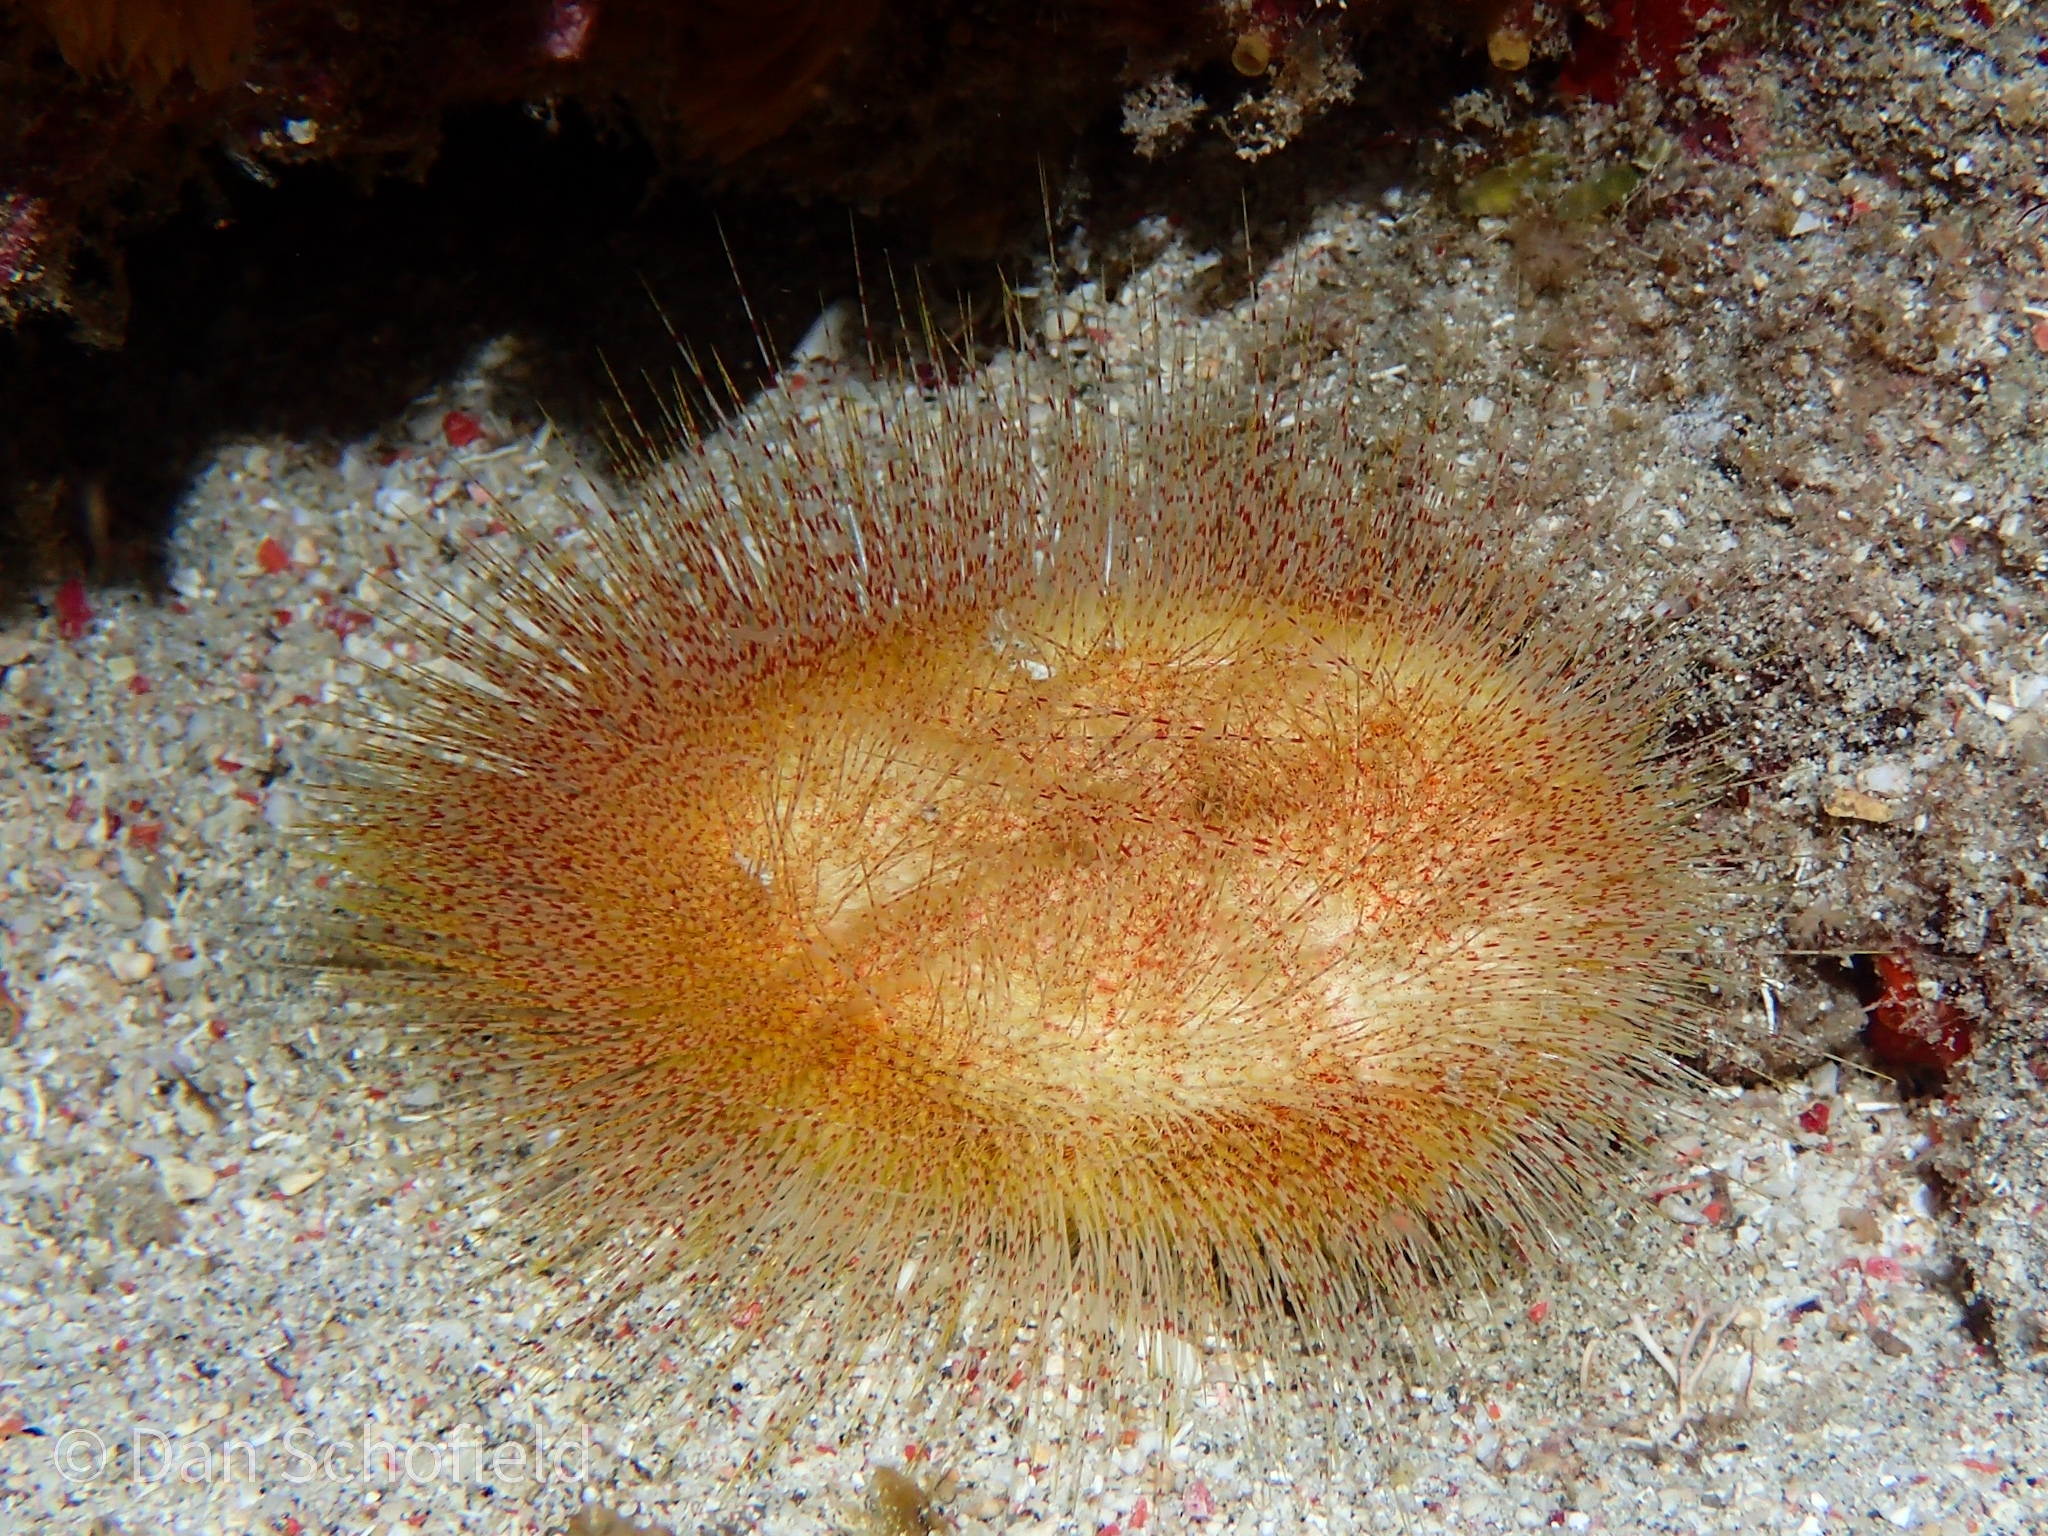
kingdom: Animalia
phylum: Echinodermata
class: Echinoidea
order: Spatangoida
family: Eurypatagidae
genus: Eurypatagus
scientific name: Eurypatagus ovalis
